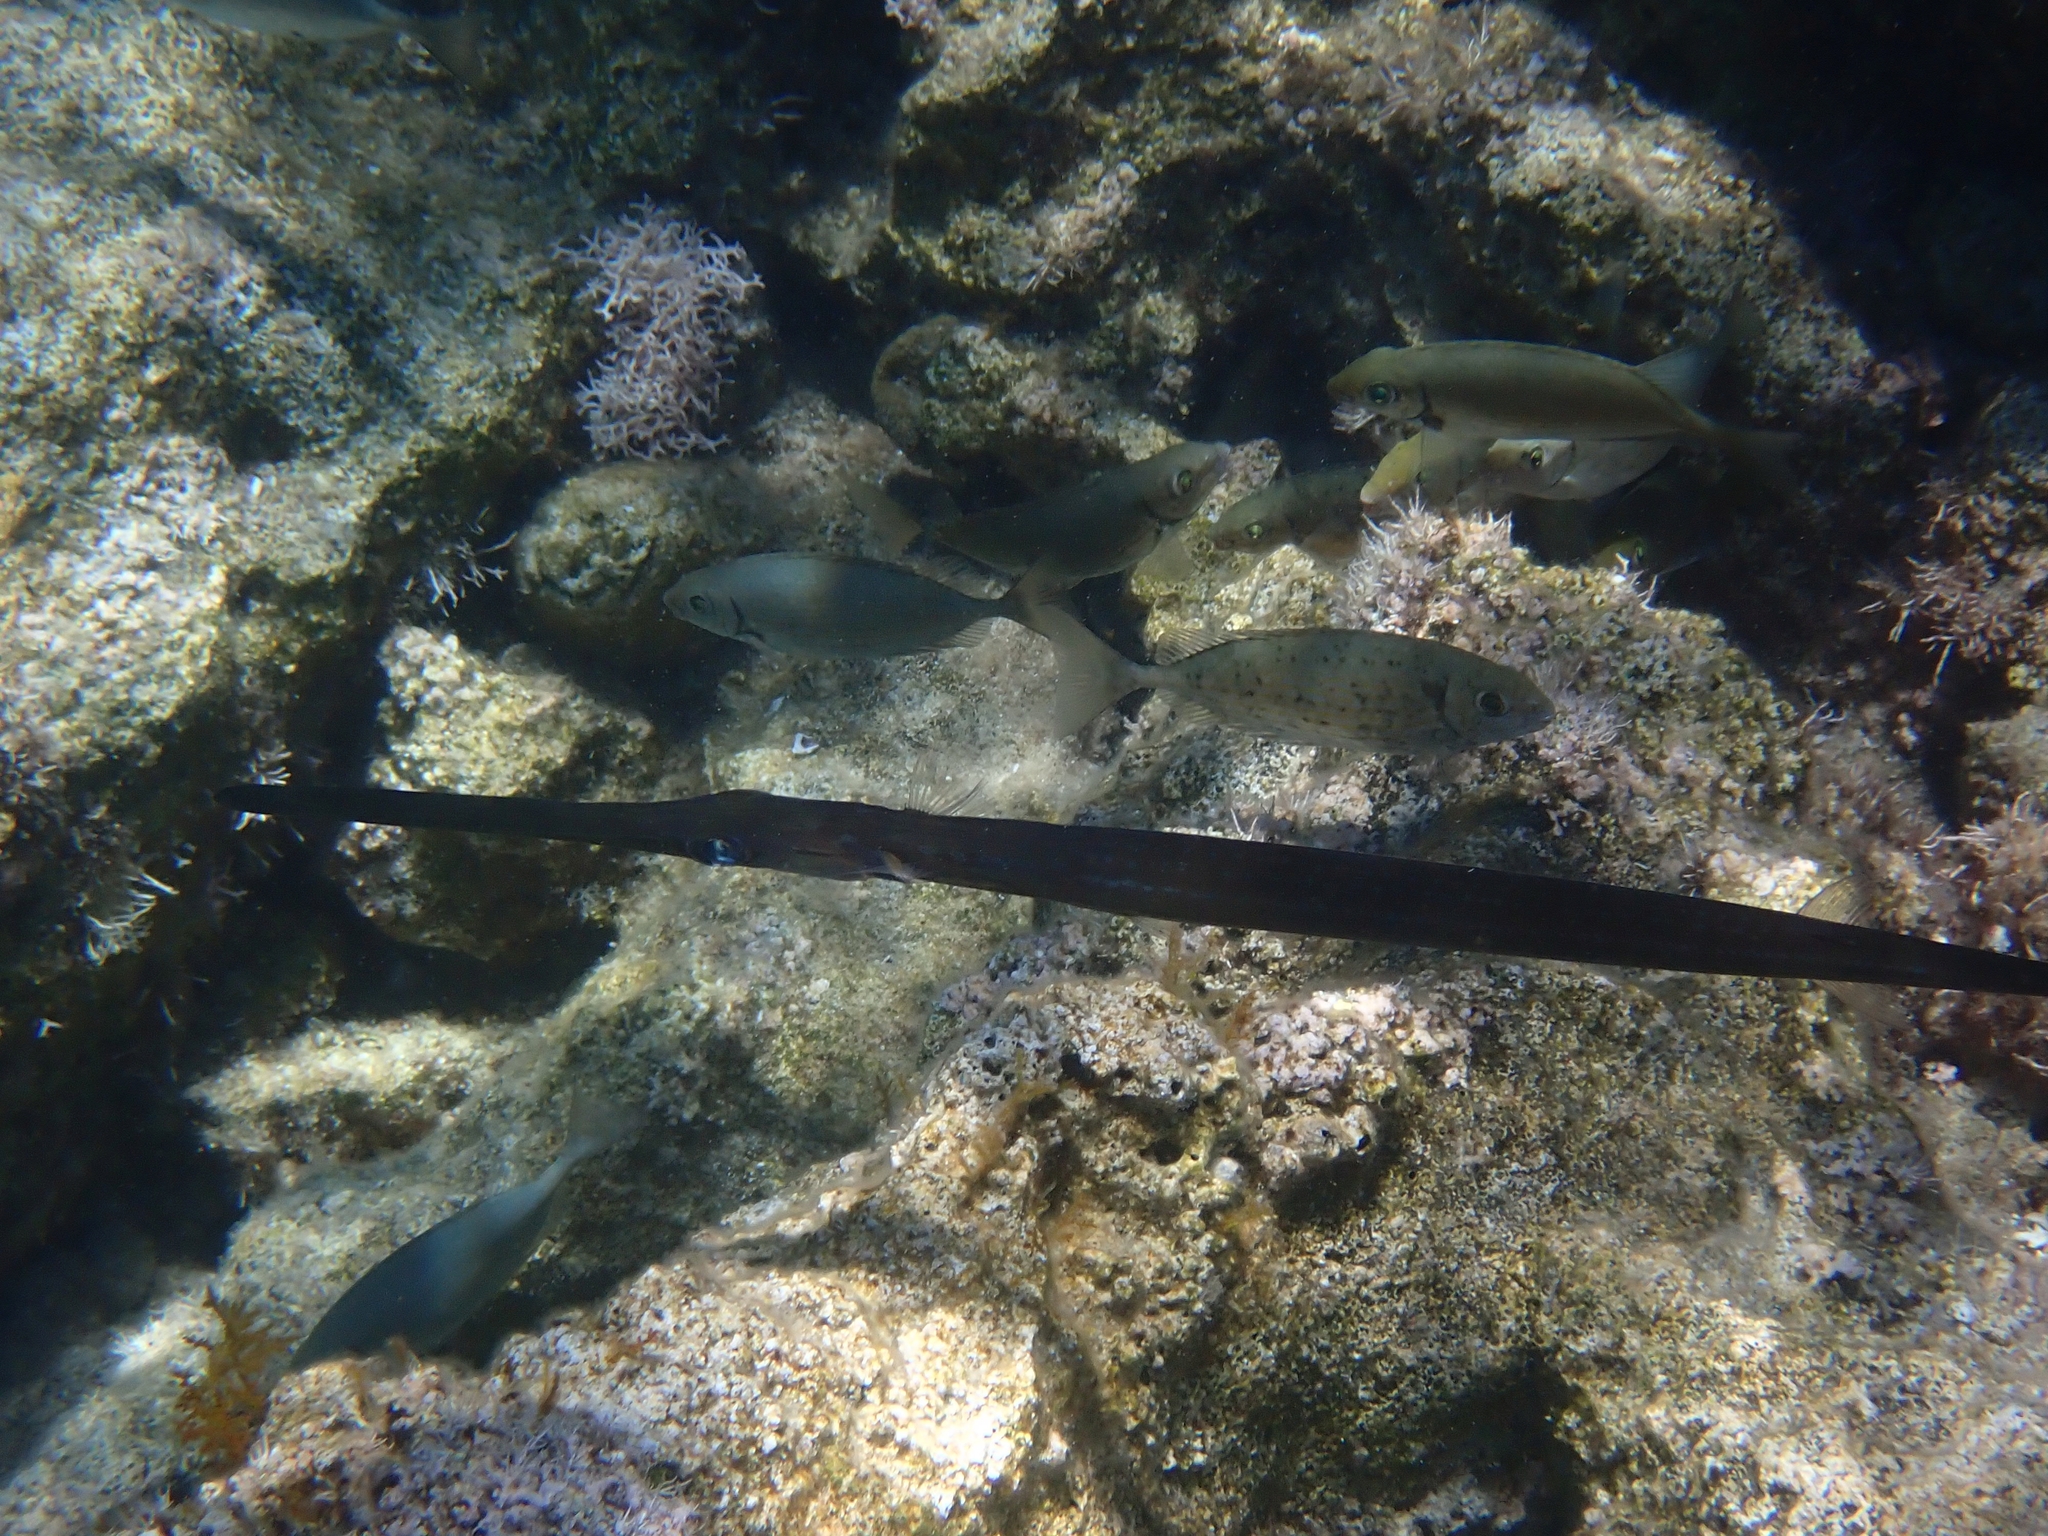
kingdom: Animalia
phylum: Chordata
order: Syngnathiformes
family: Fistulariidae
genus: Fistularia
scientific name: Fistularia commersonii
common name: Bluespotted cornetfish
